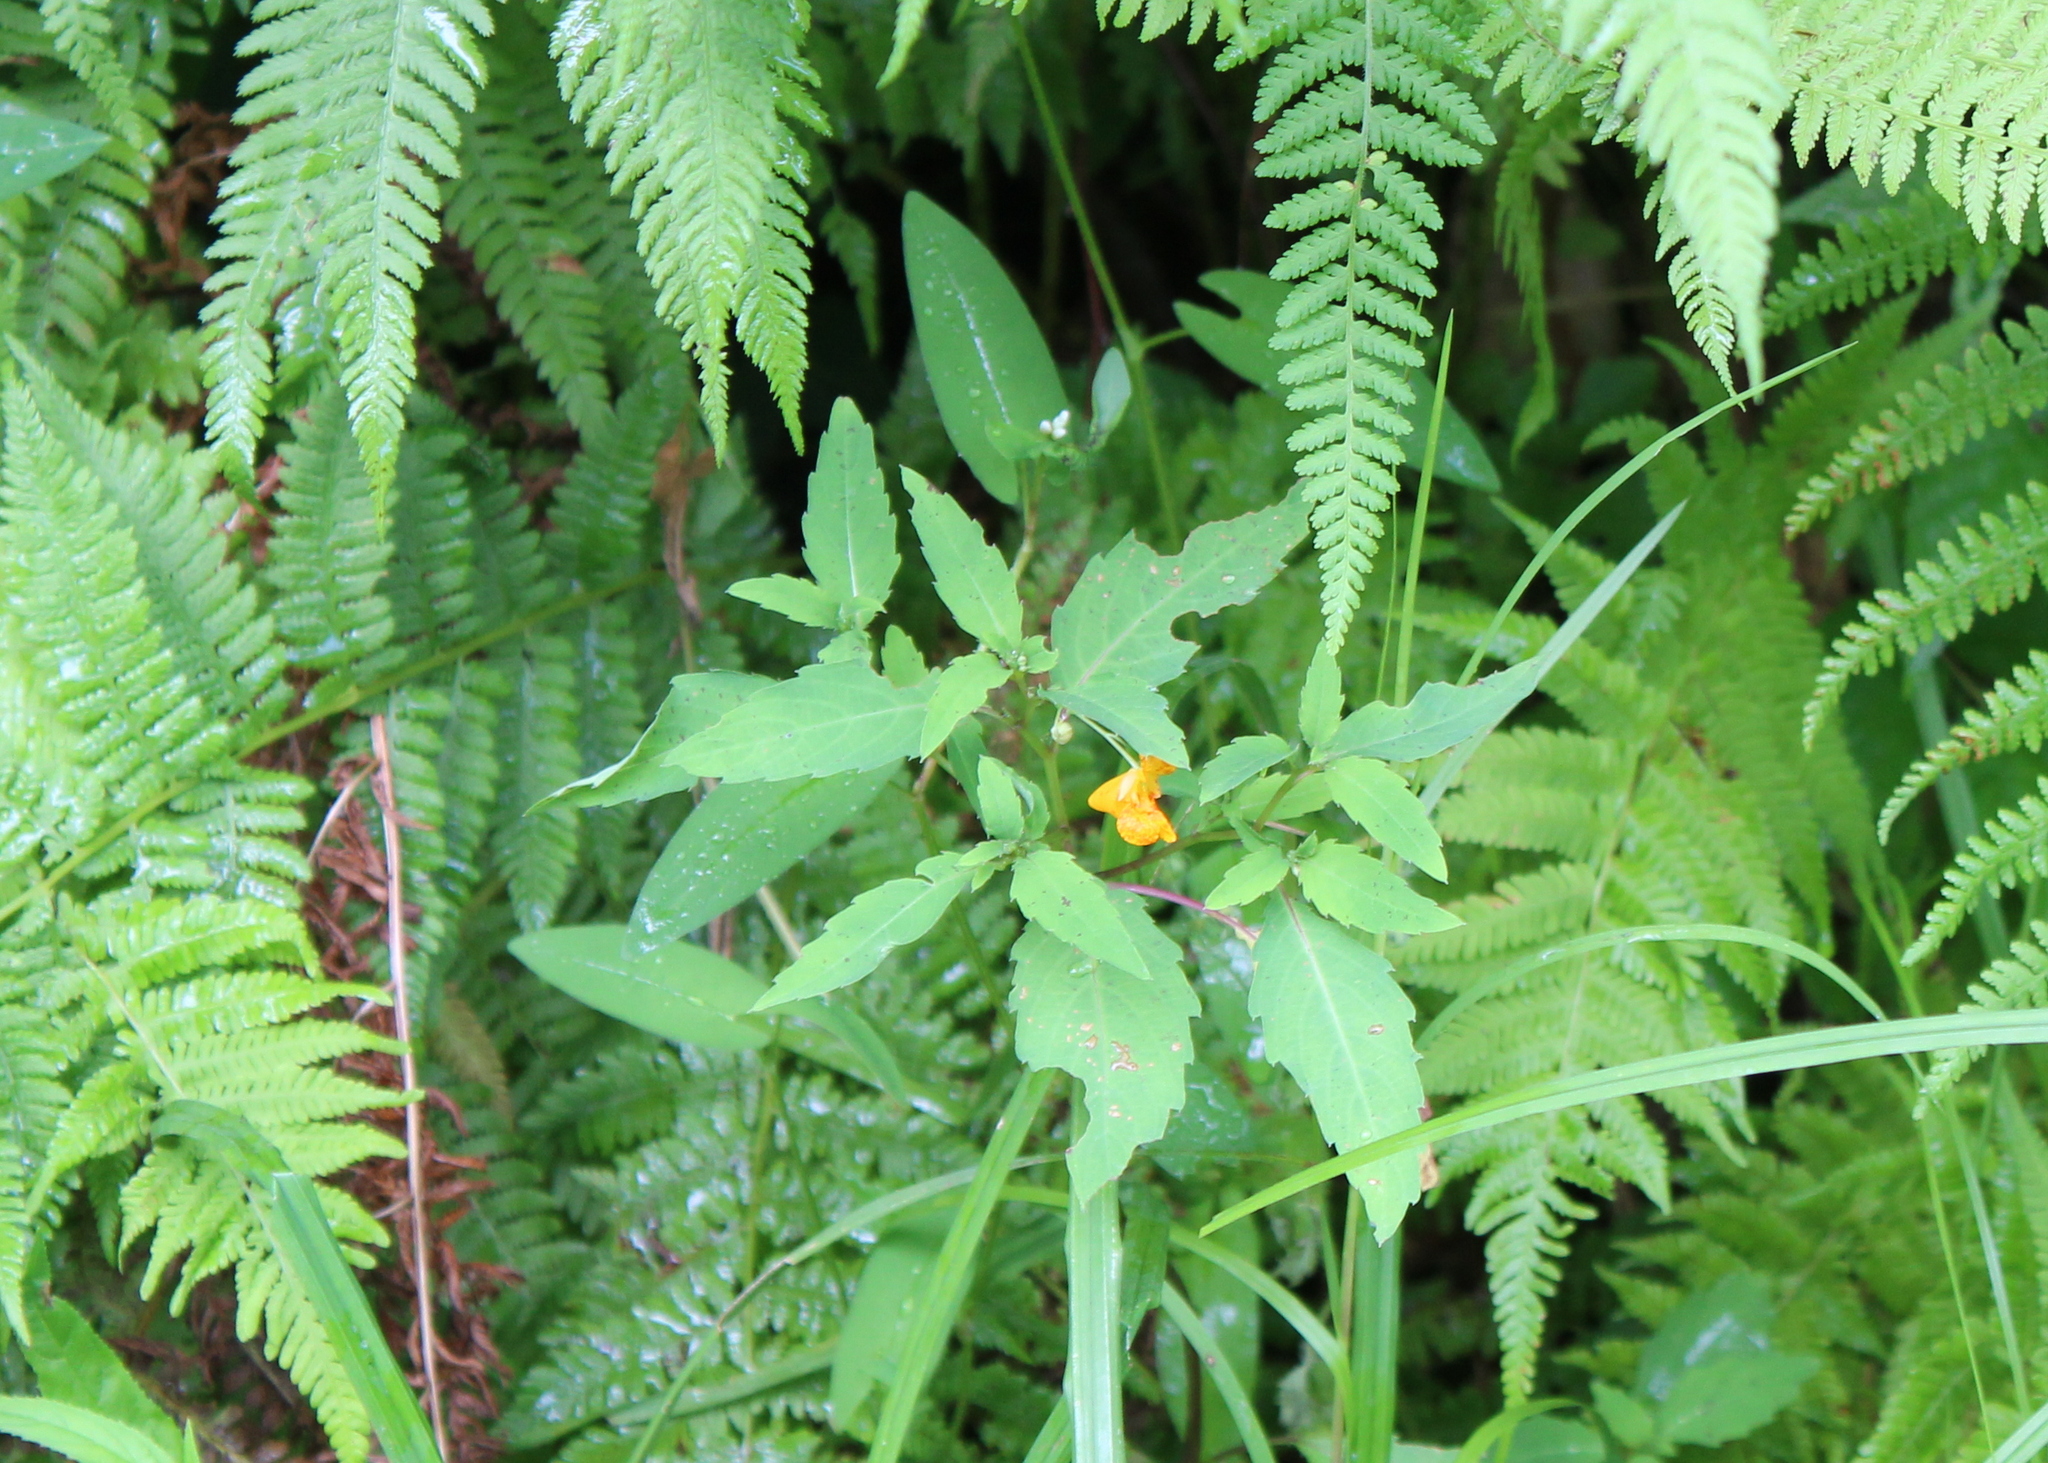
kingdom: Plantae
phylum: Tracheophyta
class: Magnoliopsida
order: Ericales
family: Balsaminaceae
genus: Impatiens
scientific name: Impatiens capensis
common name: Orange balsam
